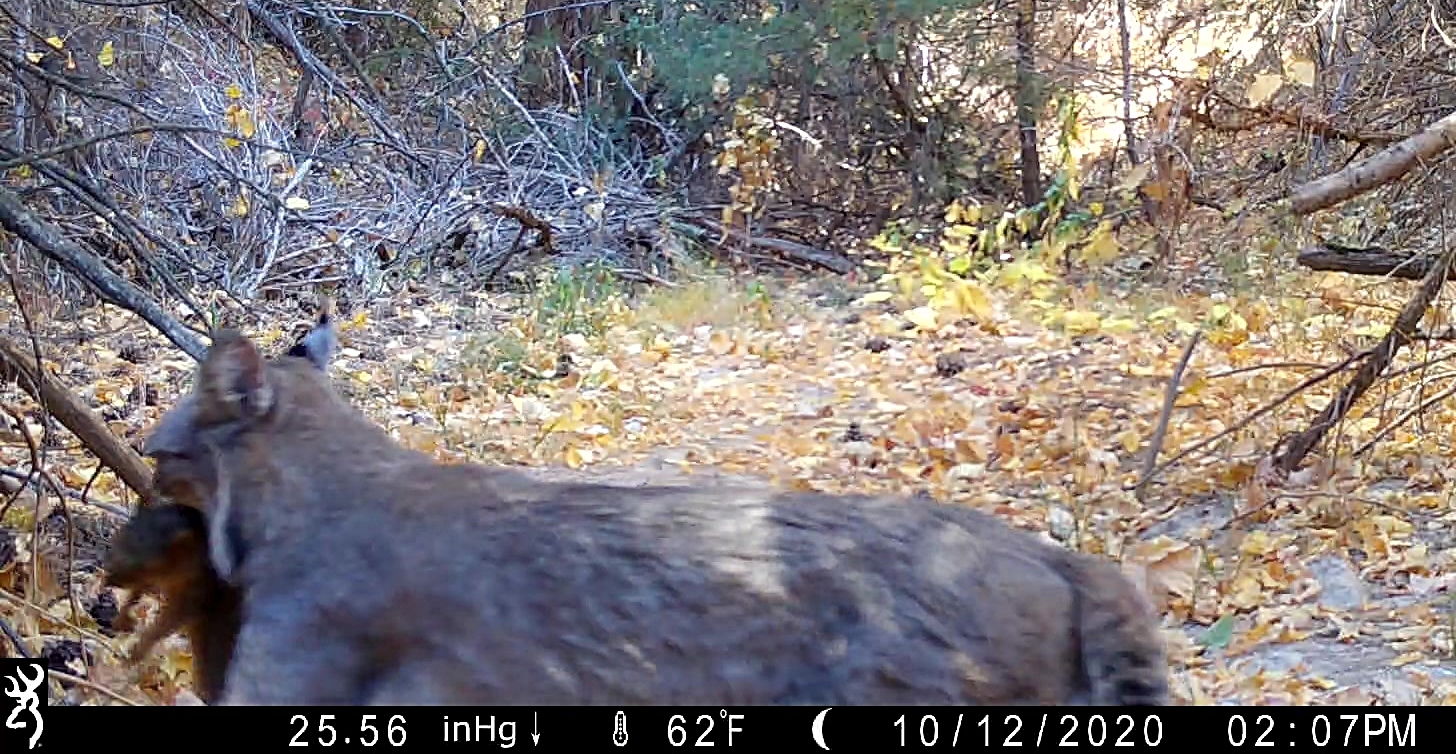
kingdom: Animalia
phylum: Chordata
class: Mammalia
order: Carnivora
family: Felidae
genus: Lynx
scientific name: Lynx rufus
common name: Bobcat
